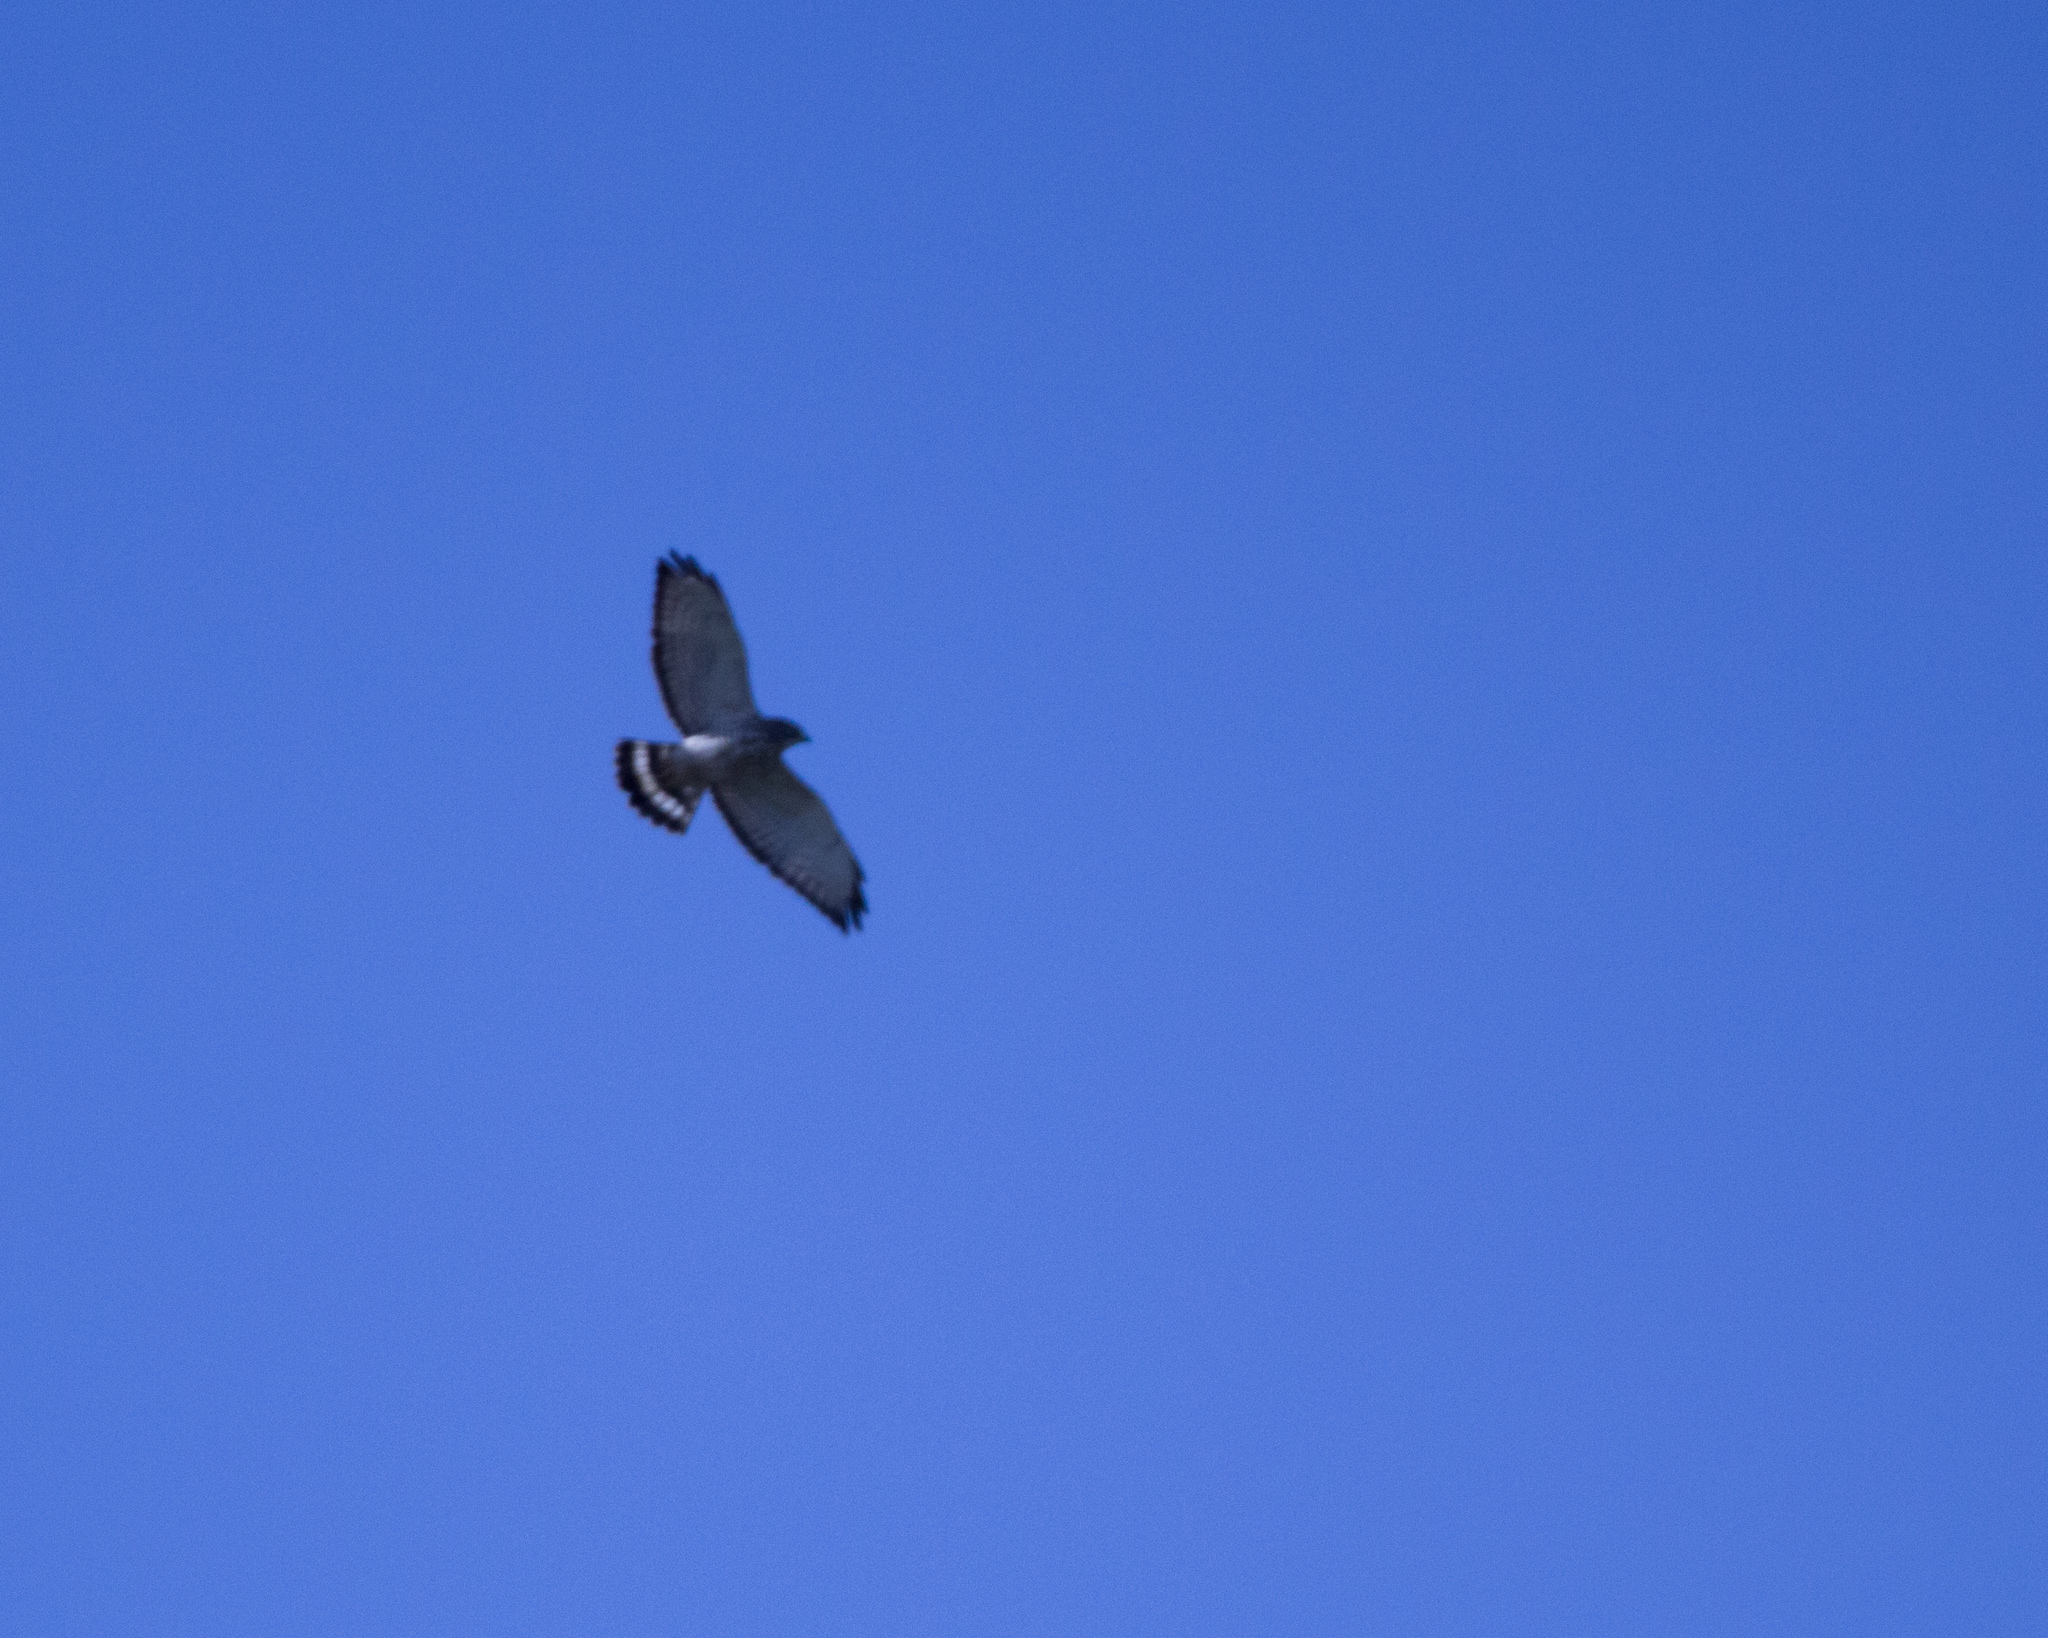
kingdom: Animalia
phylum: Chordata
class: Aves
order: Accipitriformes
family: Accipitridae
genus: Buteo
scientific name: Buteo platypterus
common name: Broad-winged hawk
